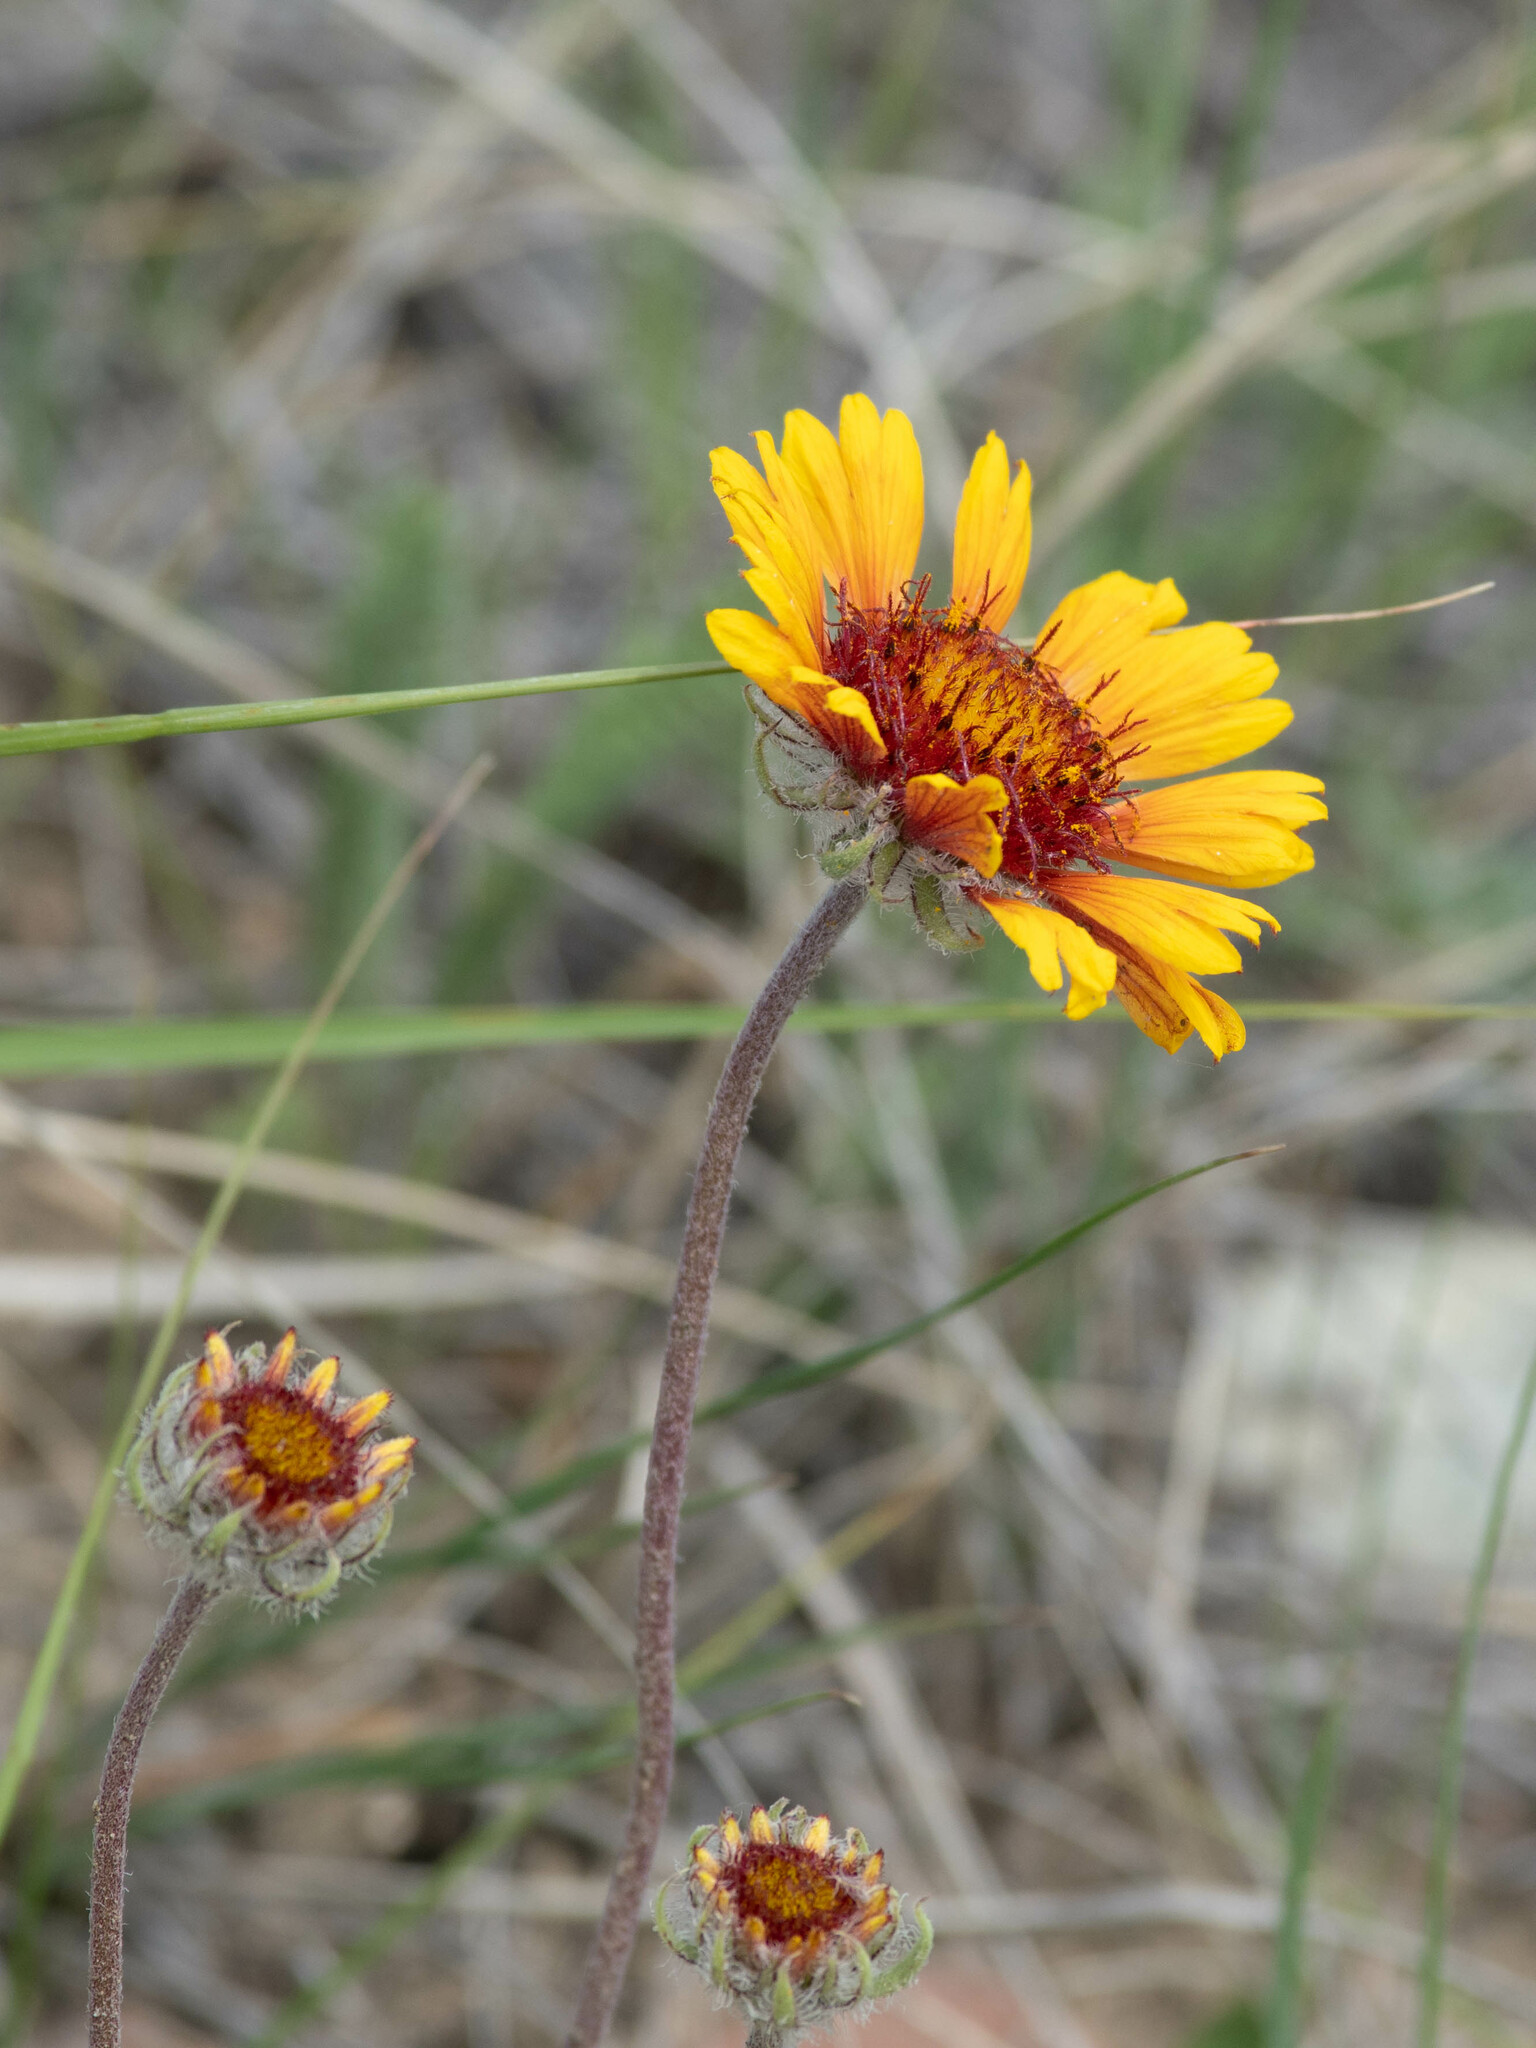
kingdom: Plantae
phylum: Tracheophyta
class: Magnoliopsida
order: Asterales
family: Asteraceae
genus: Gaillardia
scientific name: Gaillardia aristata
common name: Blanket-flower
